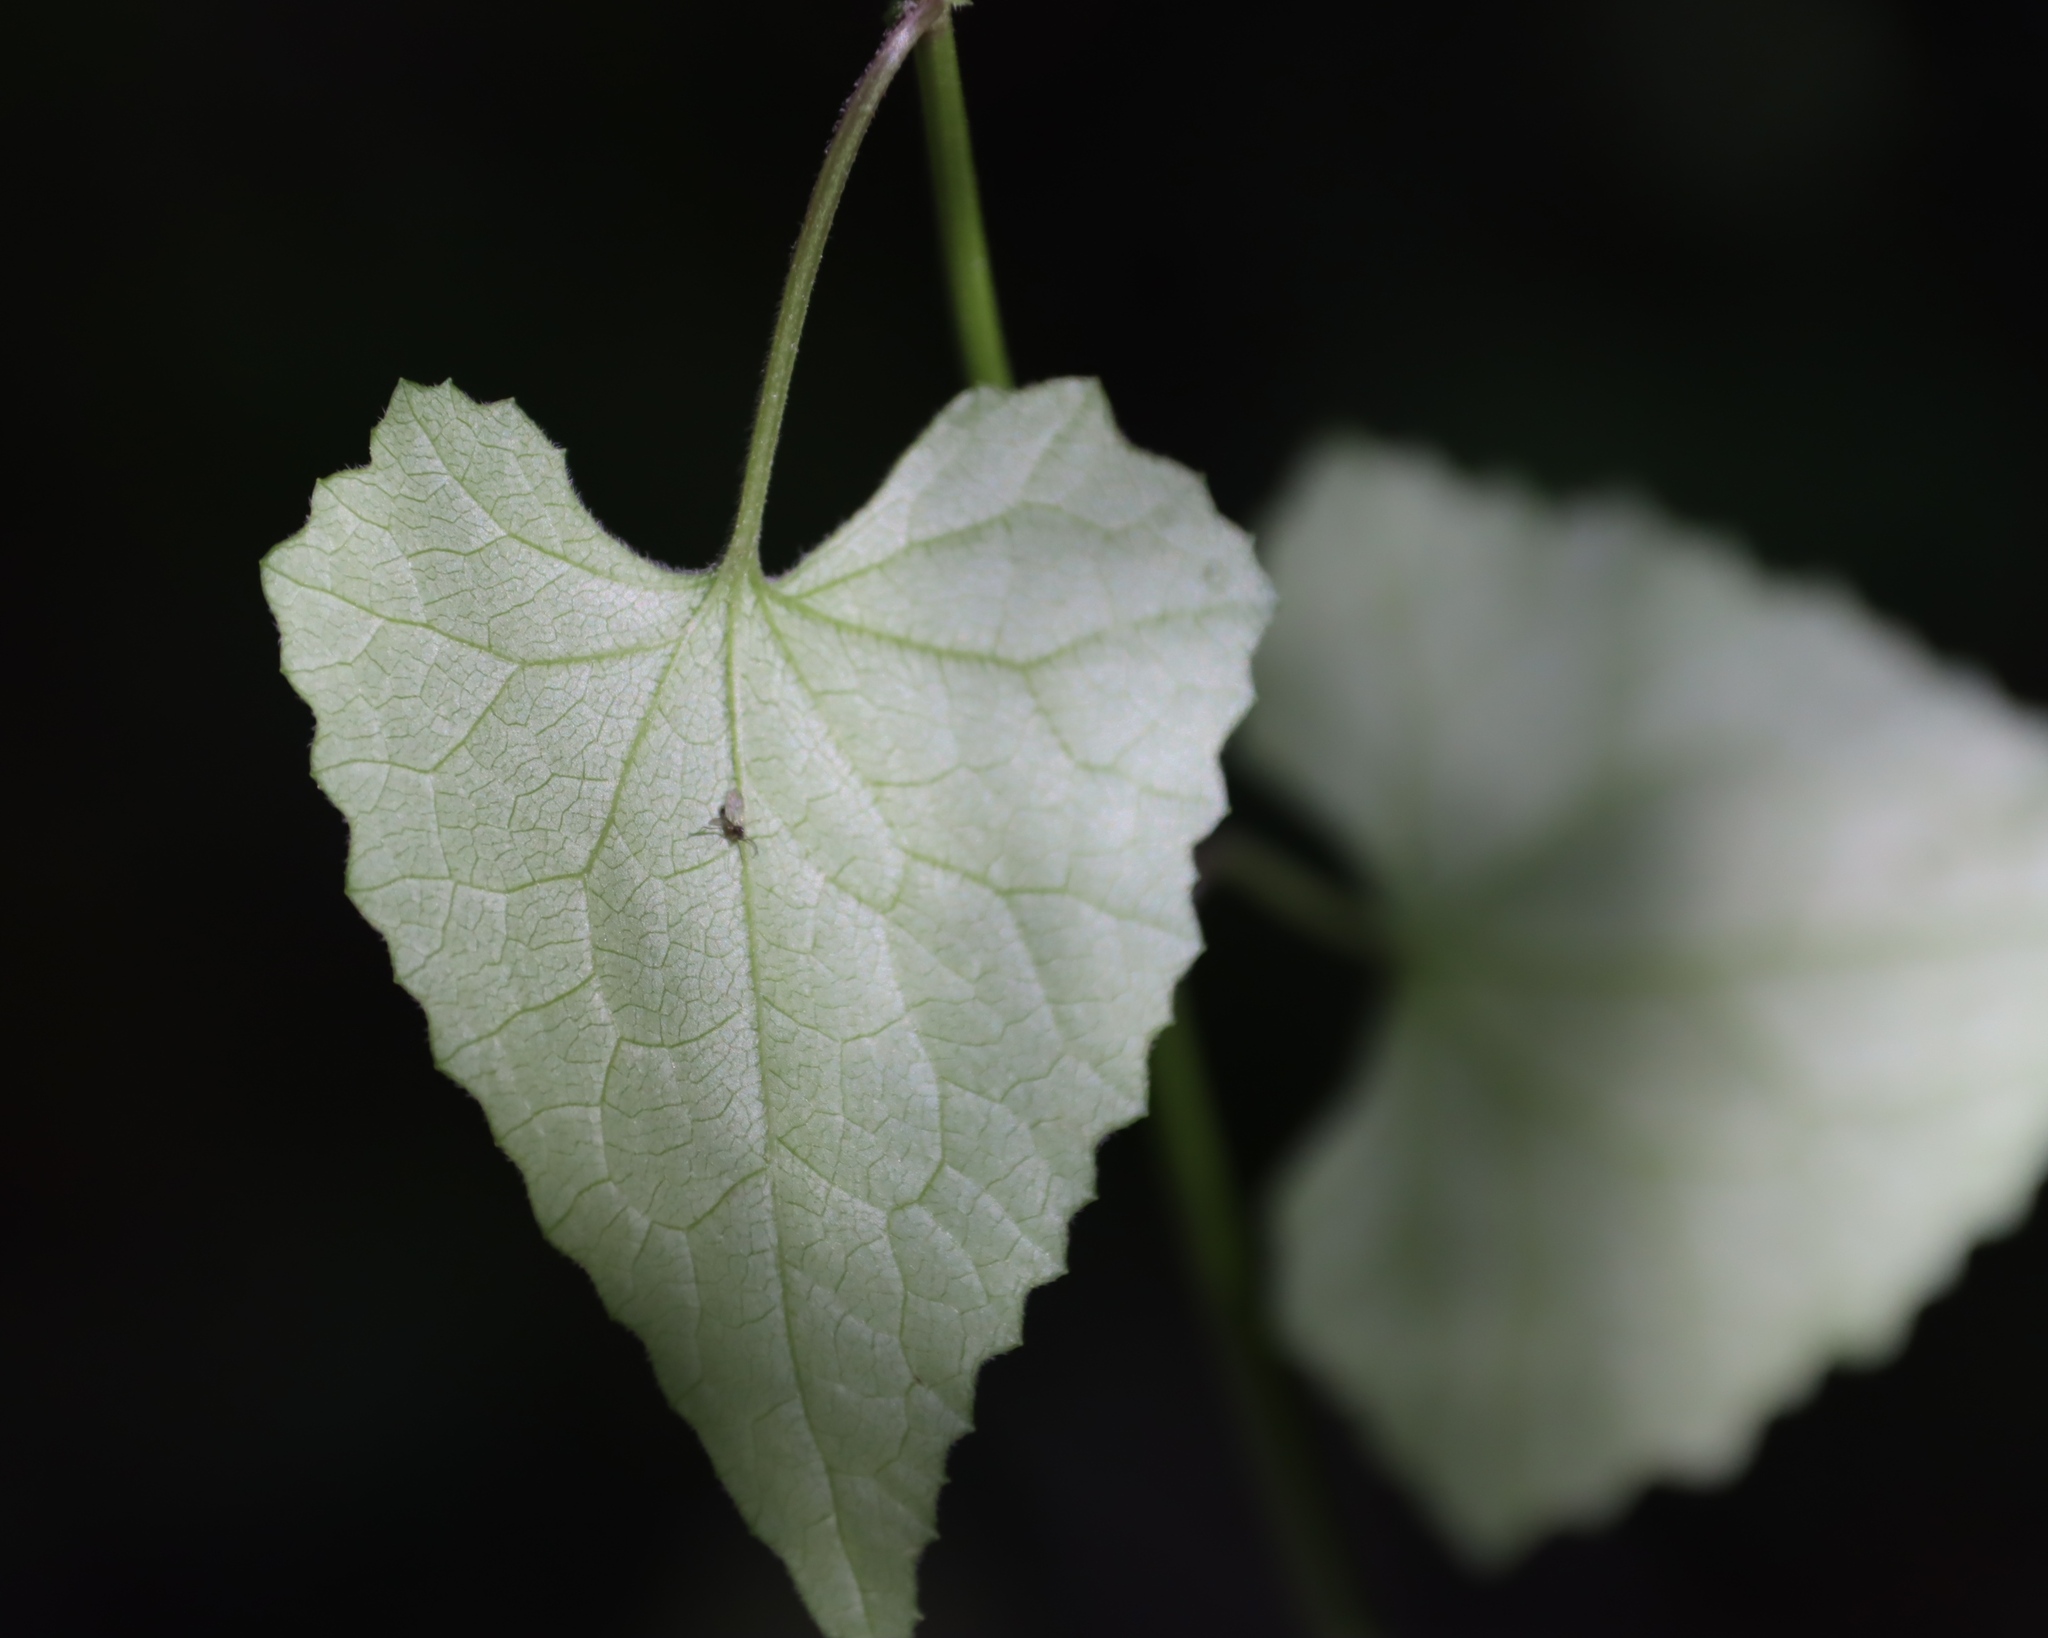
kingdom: Plantae
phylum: Tracheophyta
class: Magnoliopsida
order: Asterales
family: Asteraceae
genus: Senecio
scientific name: Senecio deltoideus
